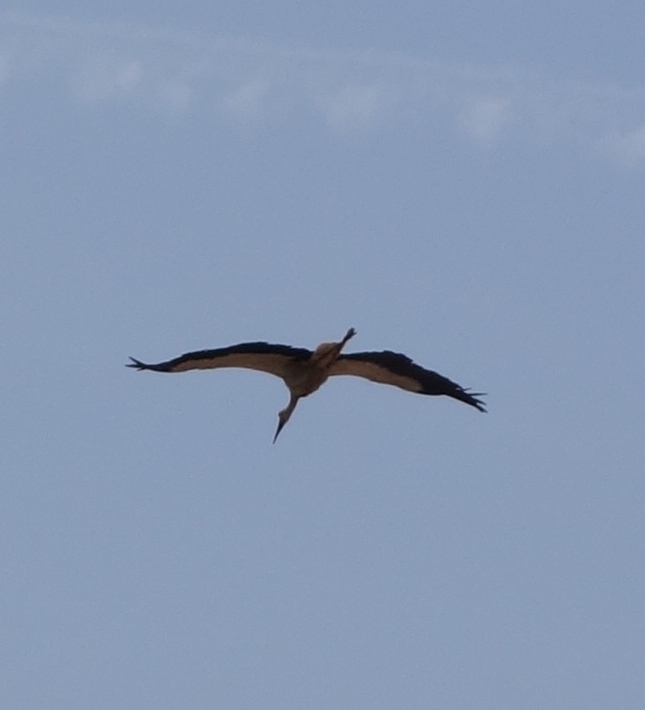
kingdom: Animalia
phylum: Chordata
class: Aves
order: Ciconiiformes
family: Ciconiidae
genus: Ciconia
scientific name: Ciconia ciconia
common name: White stork
